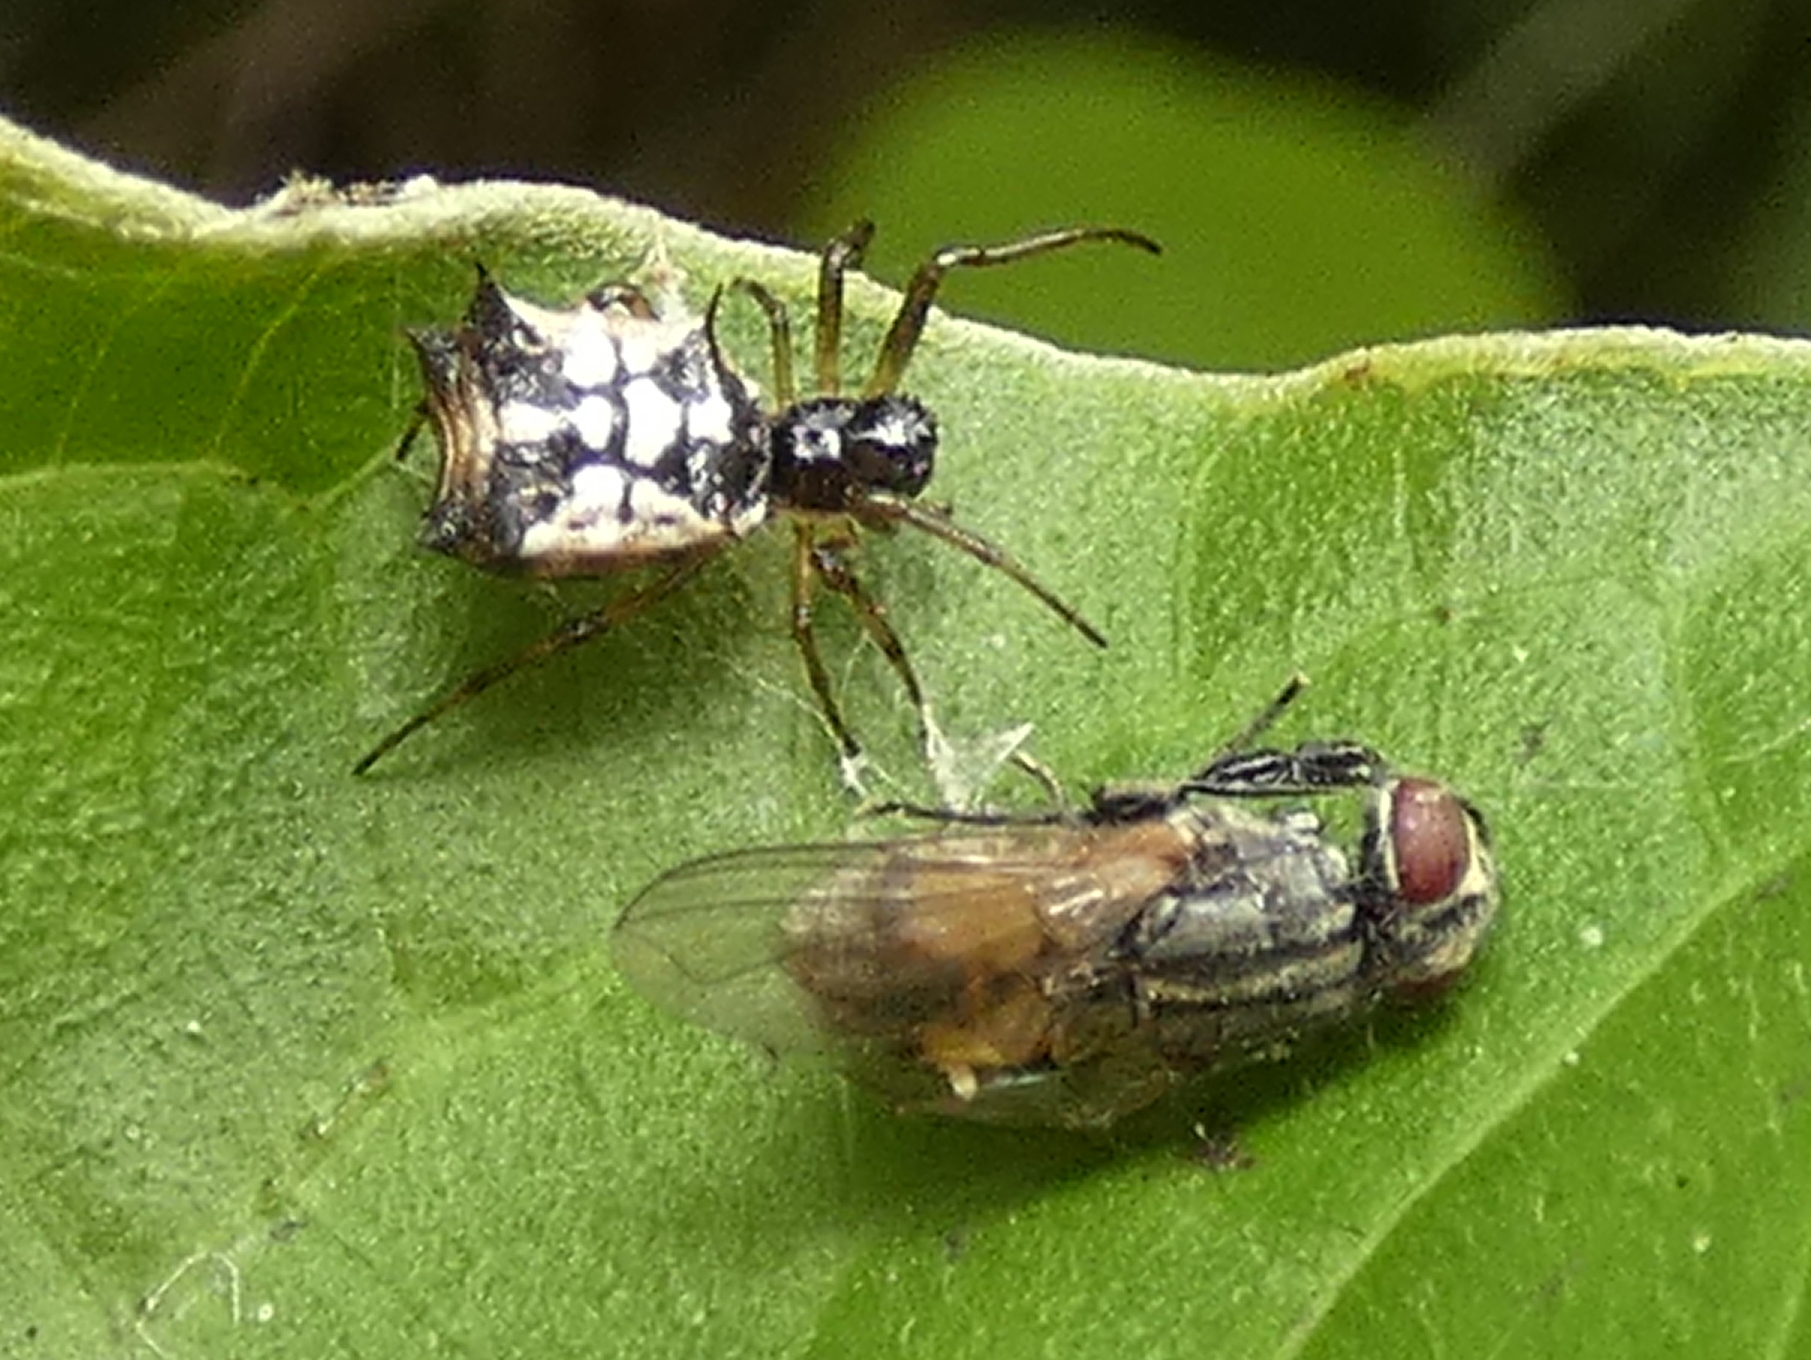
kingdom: Animalia
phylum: Arthropoda
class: Arachnida
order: Araneae
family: Araneidae
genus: Micrathena
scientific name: Micrathena picta
